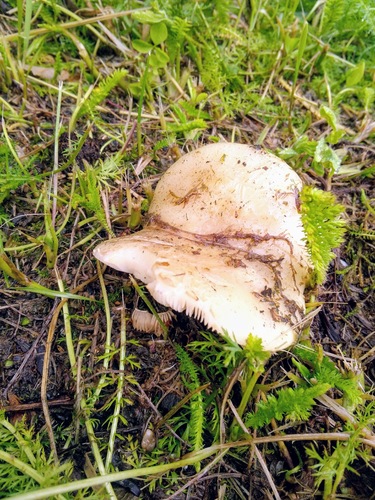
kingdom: Fungi
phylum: Basidiomycota
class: Agaricomycetes
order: Russulales
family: Russulaceae
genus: Russula
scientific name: Russula
